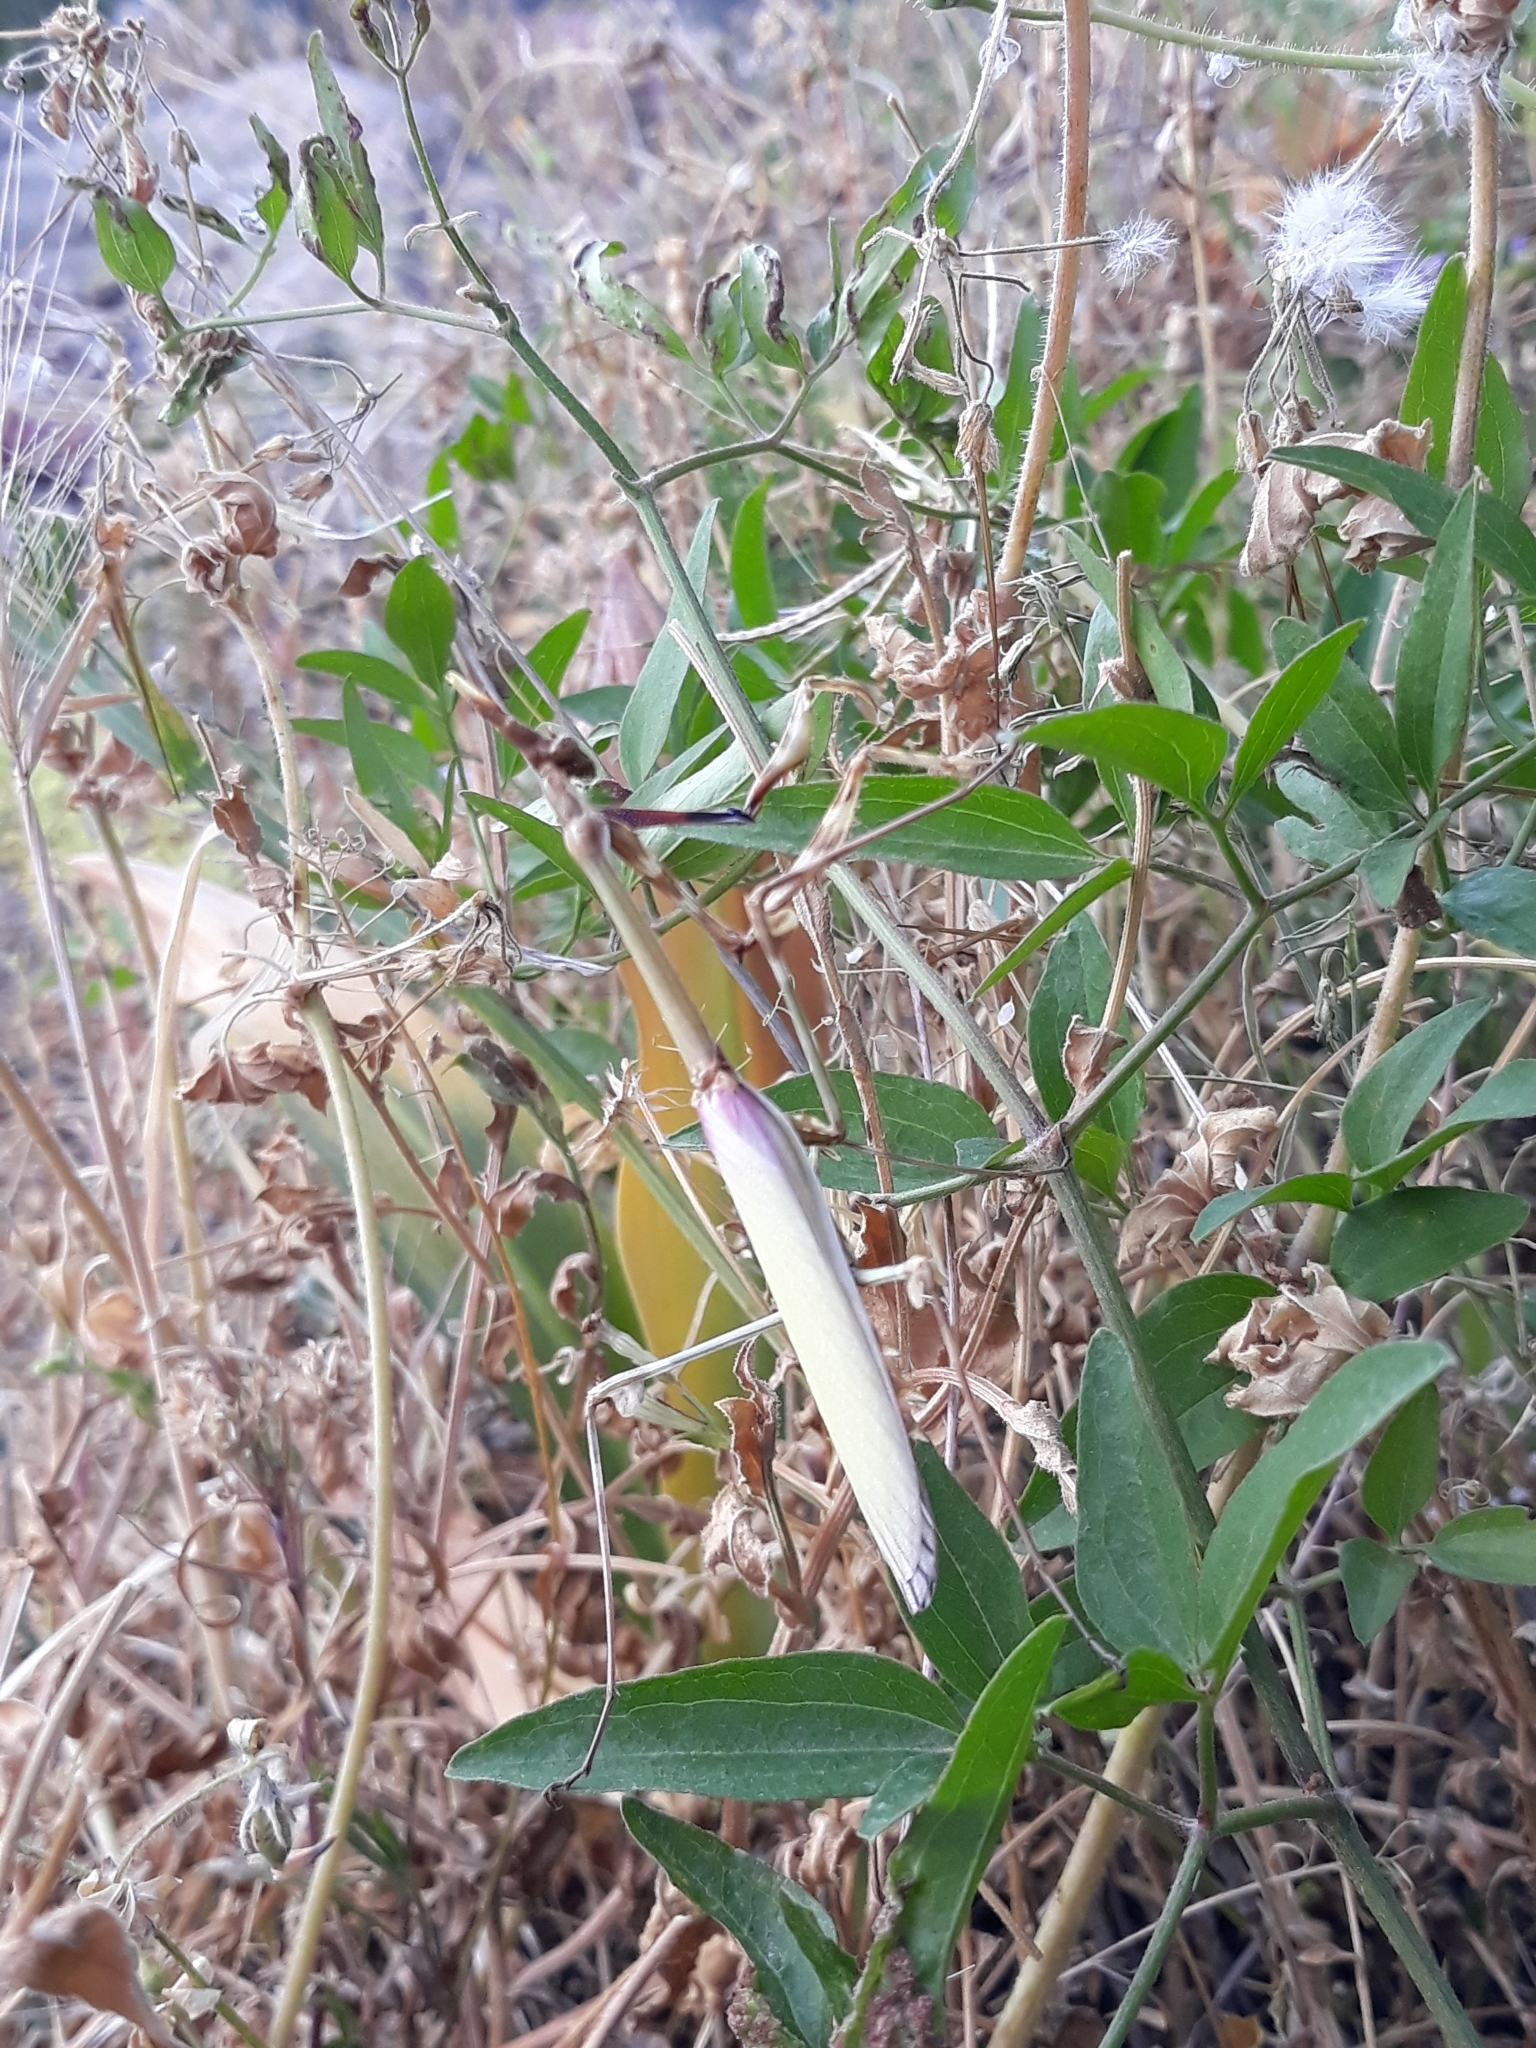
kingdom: Animalia
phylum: Arthropoda
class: Insecta
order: Mantodea
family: Empusidae
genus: Empusa
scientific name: Empusa pennata
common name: Conehead mantis
